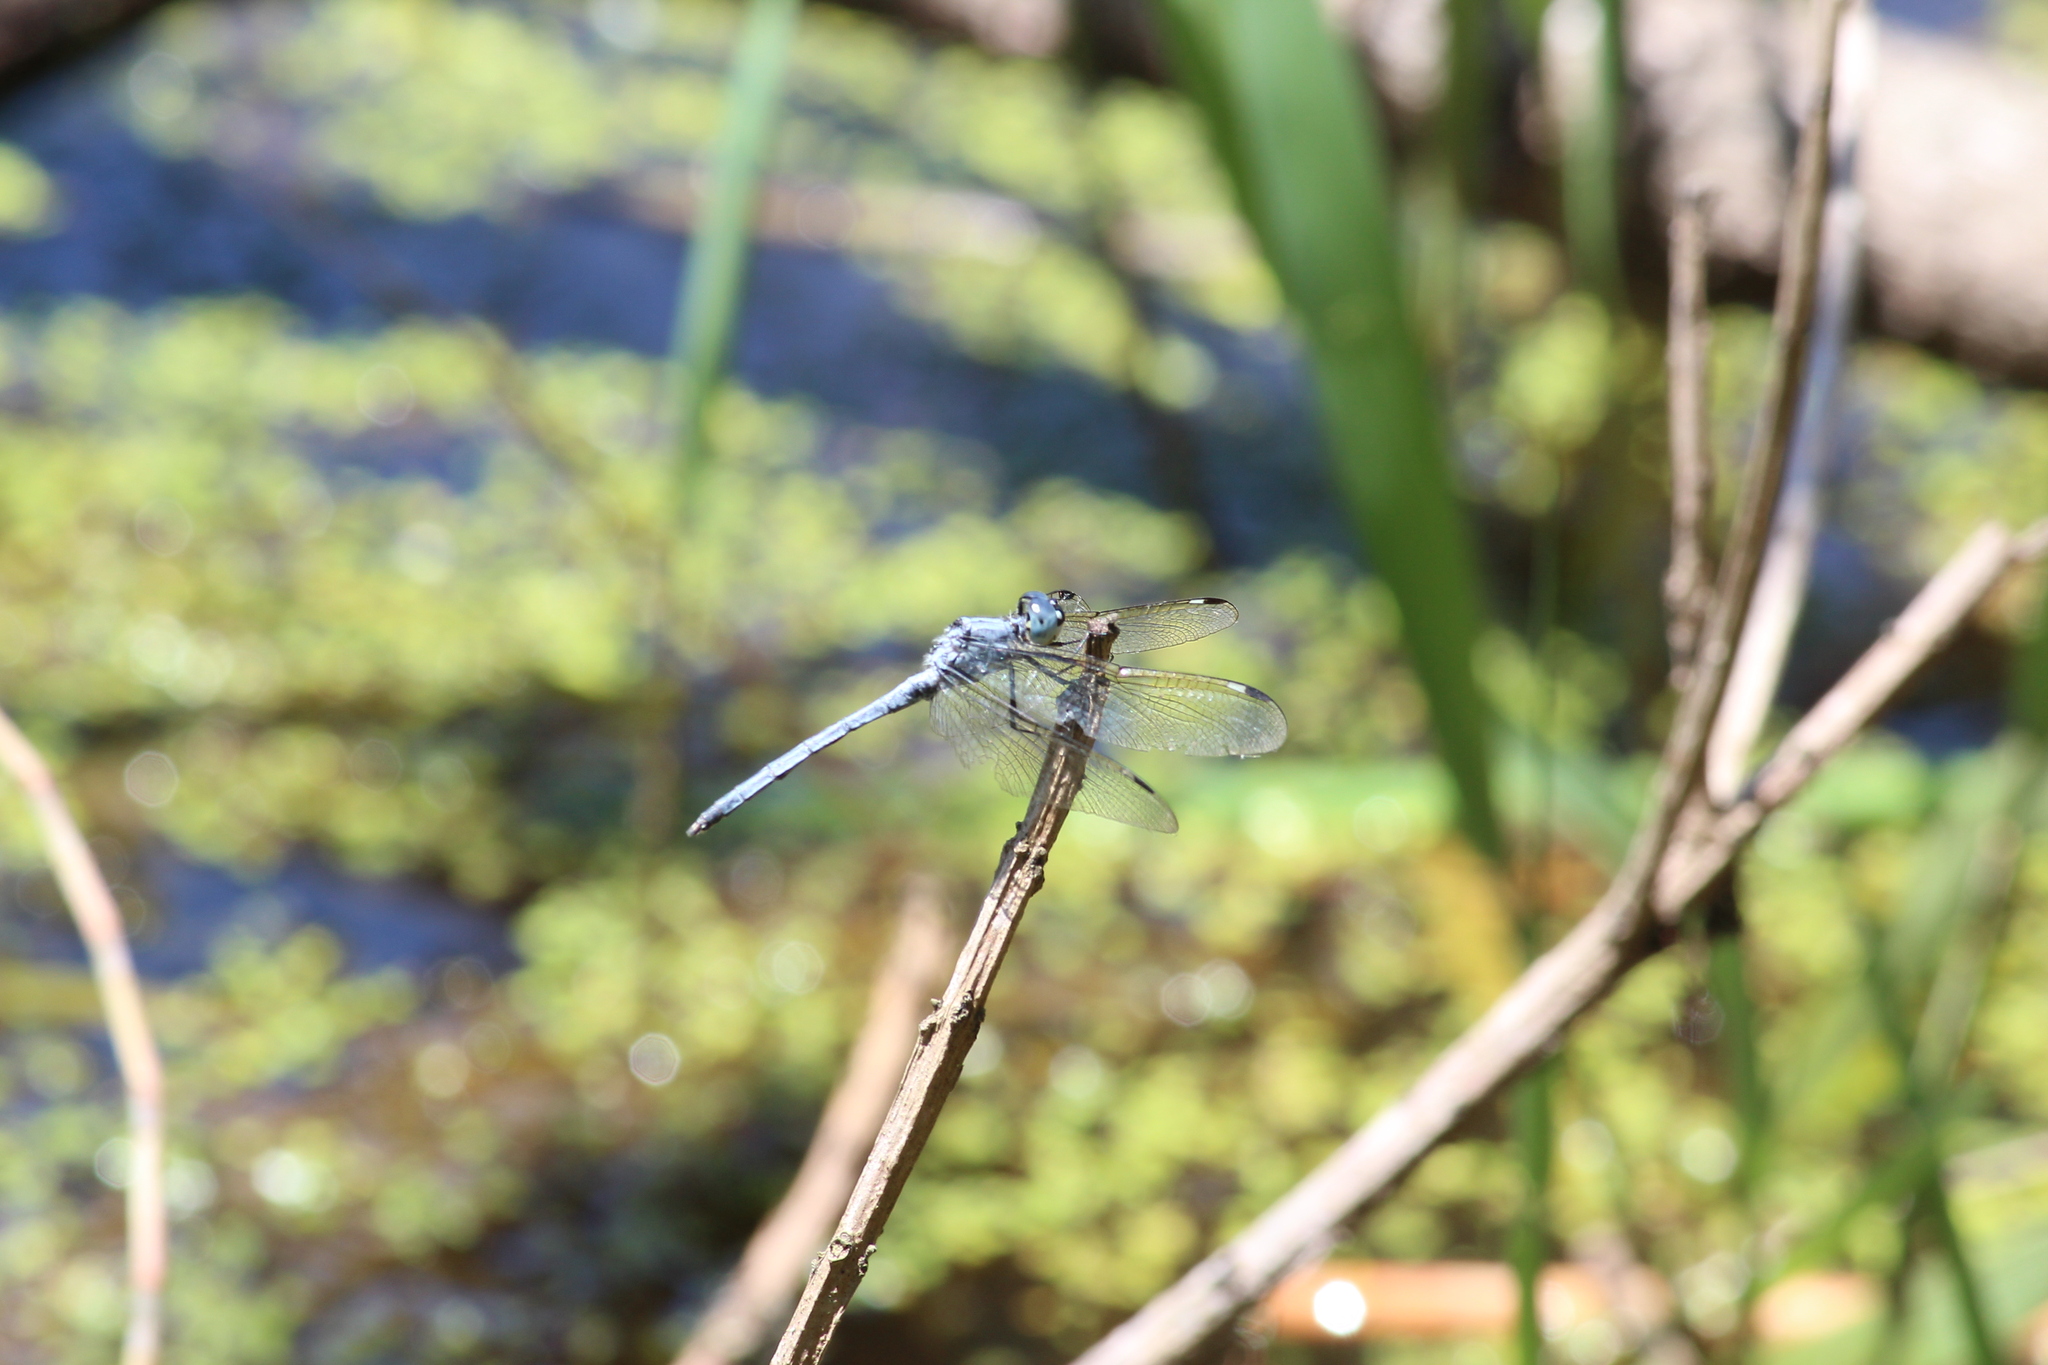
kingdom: Animalia
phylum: Arthropoda
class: Insecta
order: Odonata
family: Libellulidae
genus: Hemistigma
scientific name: Hemistigma albipunctum
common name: African pied-spot
